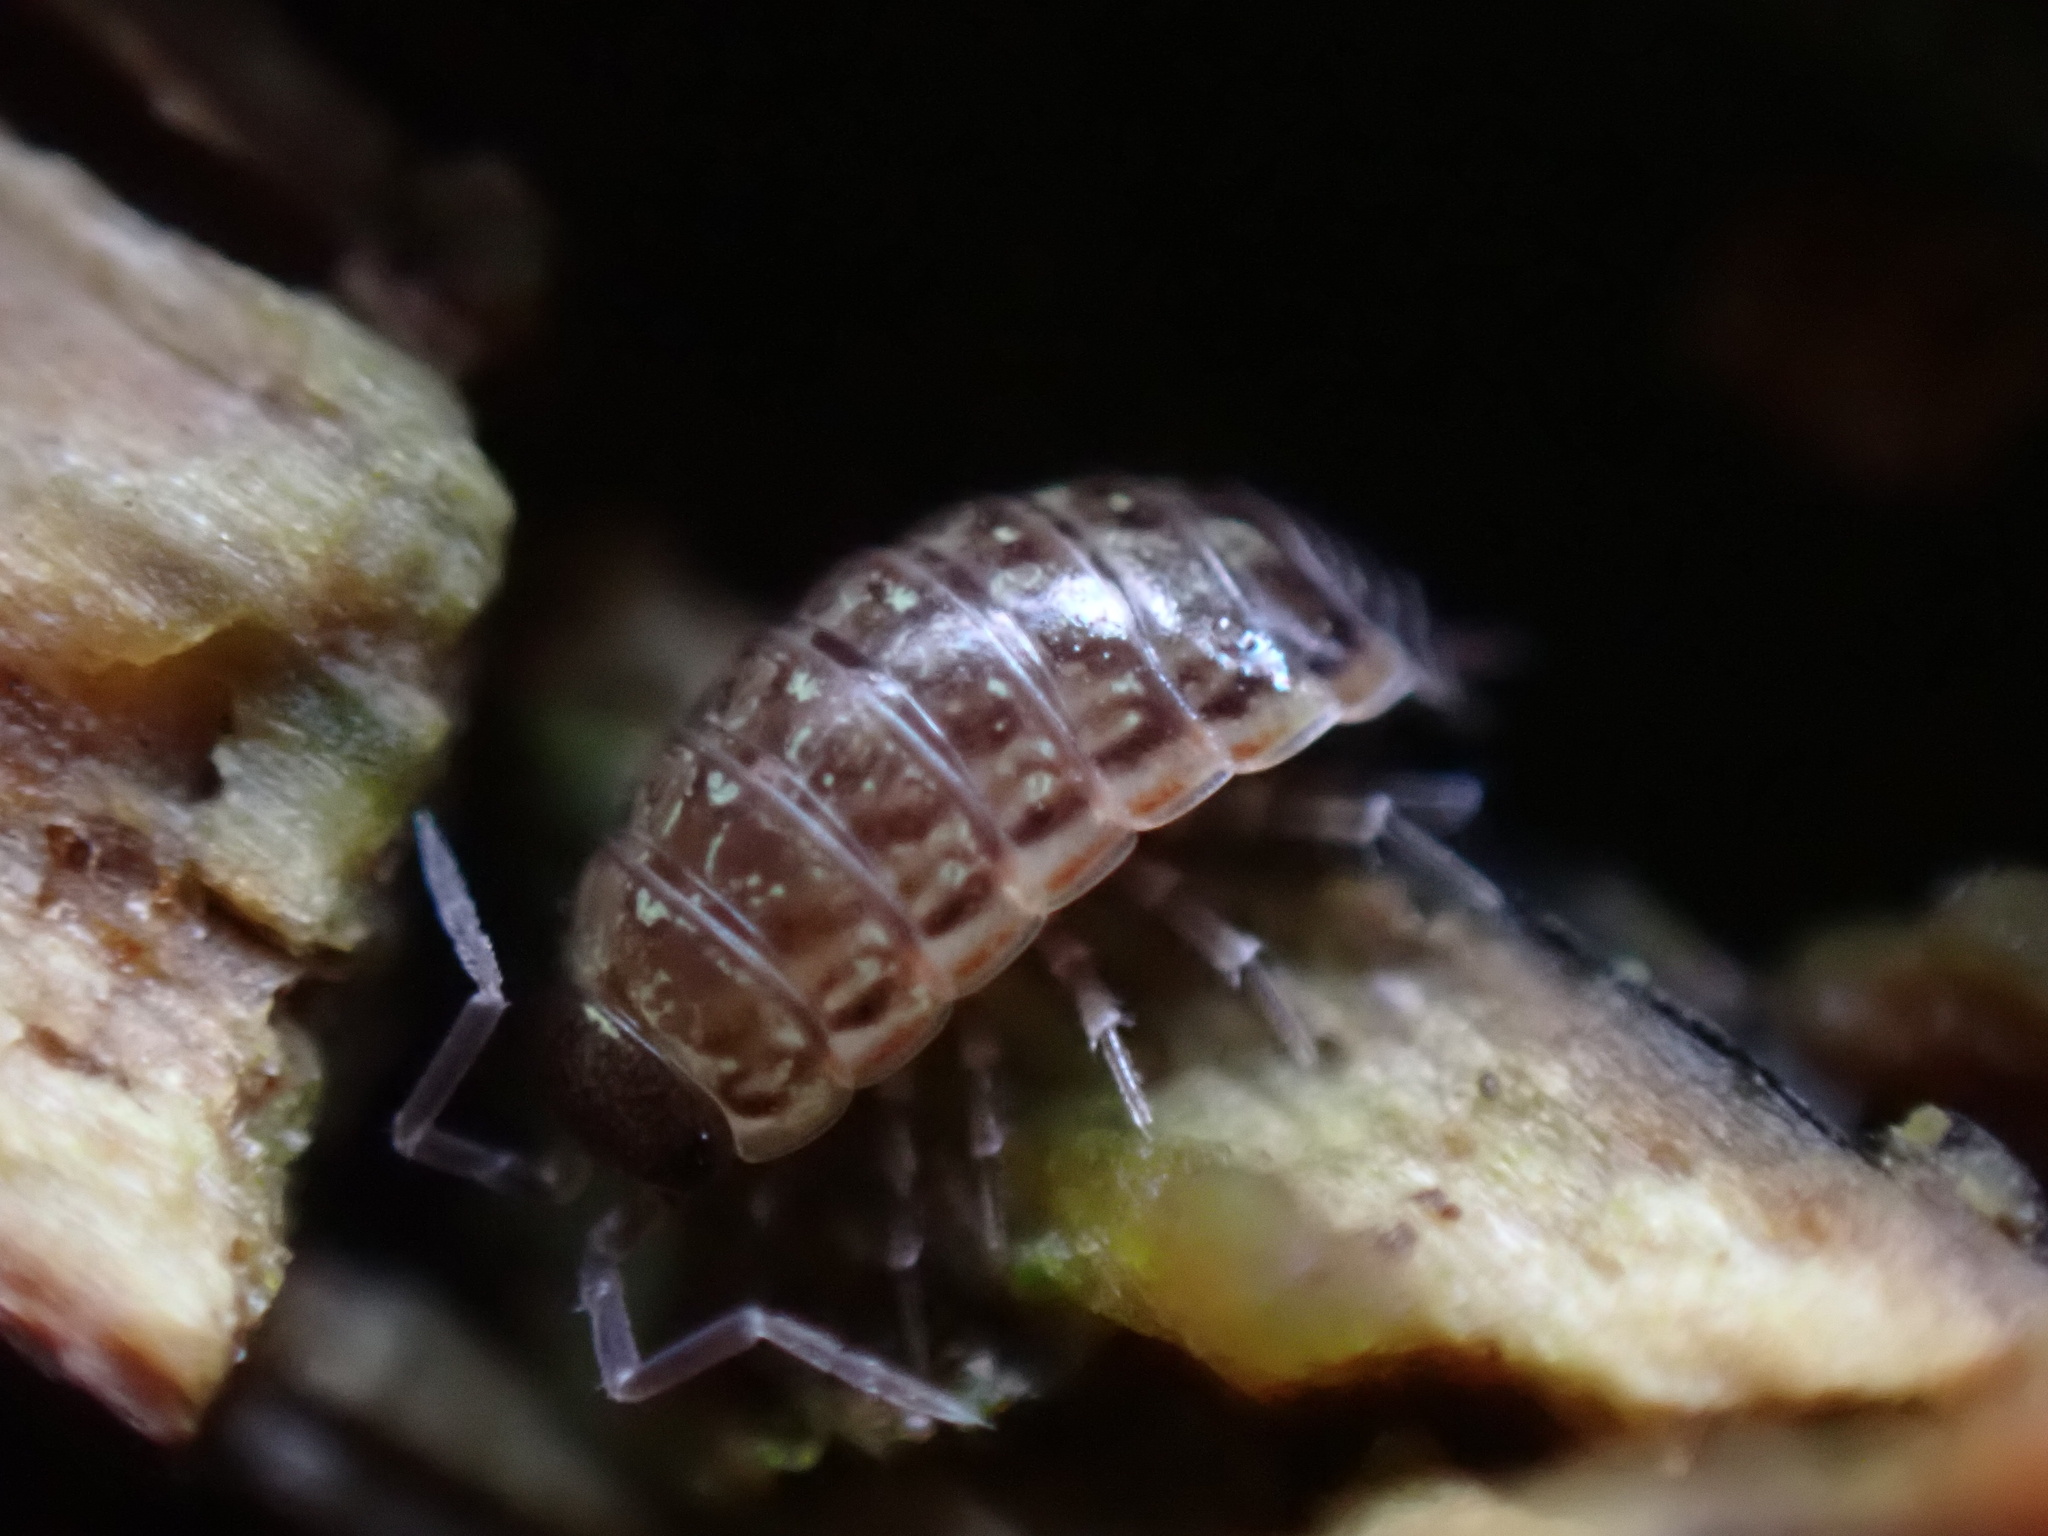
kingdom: Animalia
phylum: Arthropoda
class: Malacostraca
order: Isopoda
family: Philosciidae
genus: Philoscia
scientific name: Philoscia muscorum
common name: Common striped woodlouse
